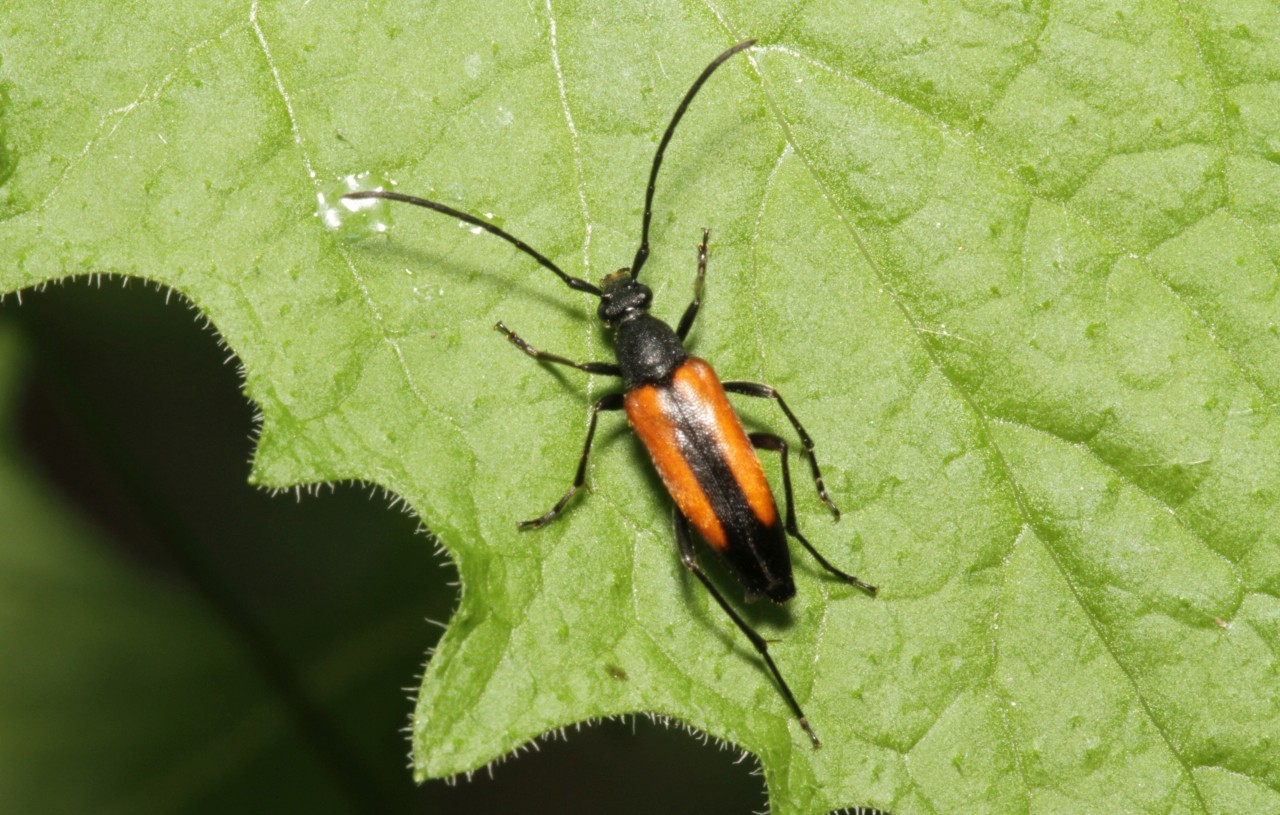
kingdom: Animalia
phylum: Arthropoda
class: Insecta
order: Coleoptera
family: Cerambycidae
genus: Stenurella
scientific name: Stenurella melanura
